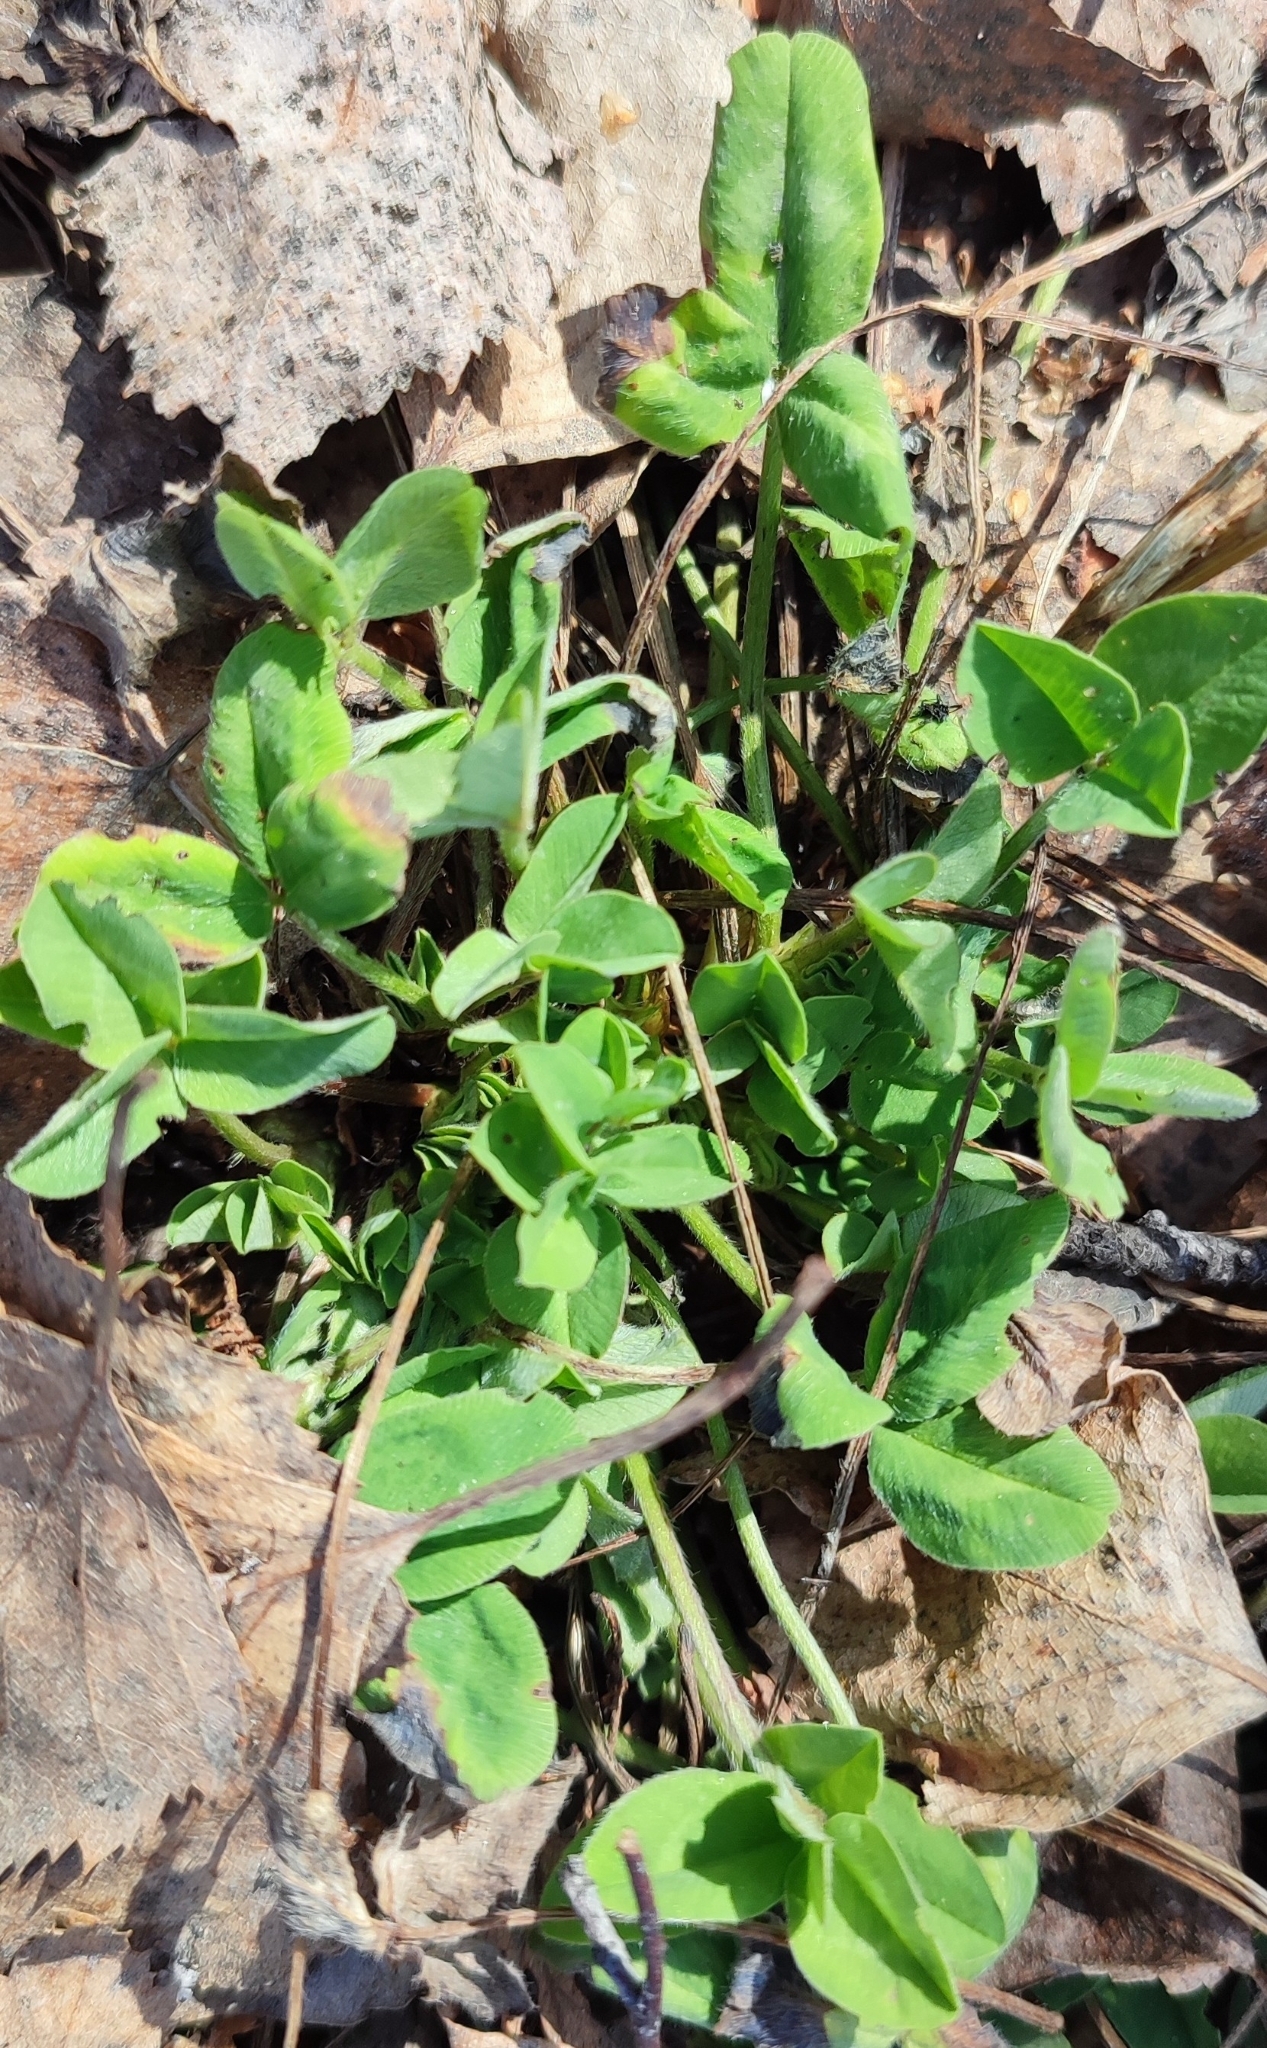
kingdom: Plantae
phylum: Tracheophyta
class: Magnoliopsida
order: Fabales
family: Fabaceae
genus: Trifolium
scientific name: Trifolium pratense
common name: Red clover
